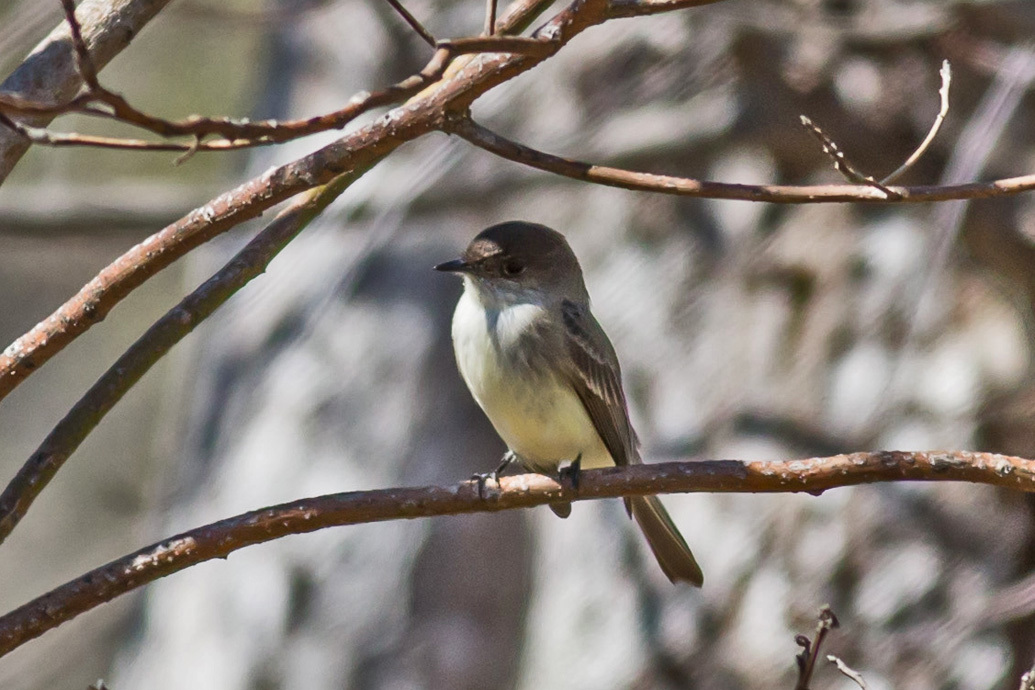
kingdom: Animalia
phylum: Chordata
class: Aves
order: Passeriformes
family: Tyrannidae
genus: Sayornis
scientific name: Sayornis phoebe
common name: Eastern phoebe
